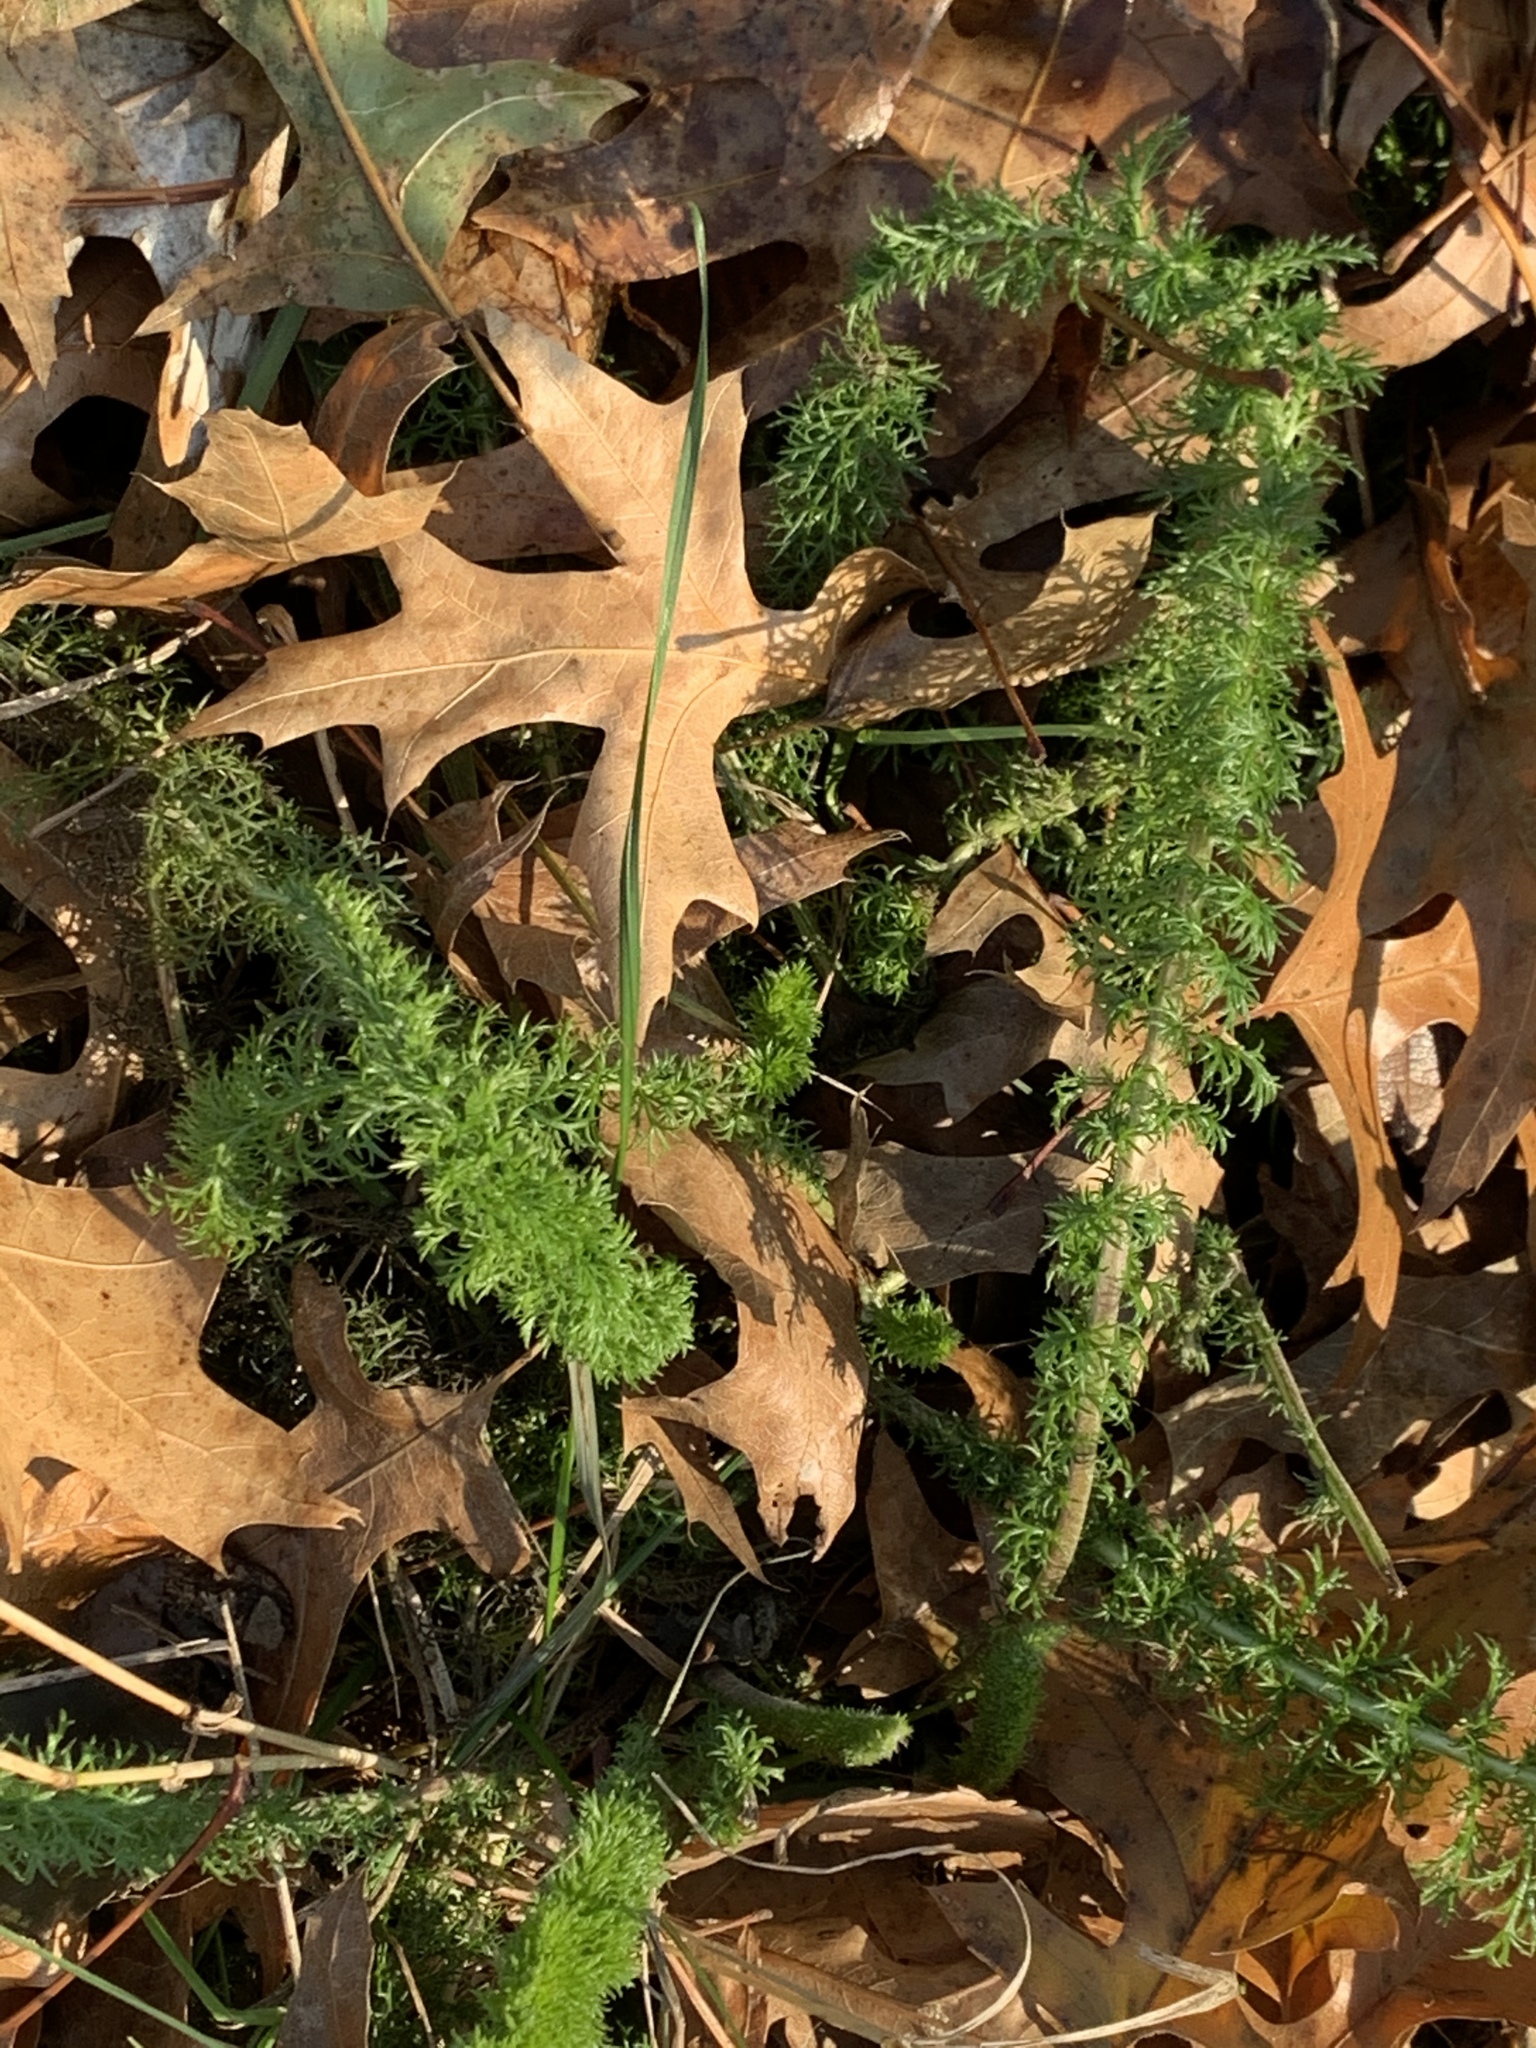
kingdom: Plantae
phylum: Tracheophyta
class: Magnoliopsida
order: Asterales
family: Asteraceae
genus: Achillea
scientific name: Achillea millefolium
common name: Yarrow
